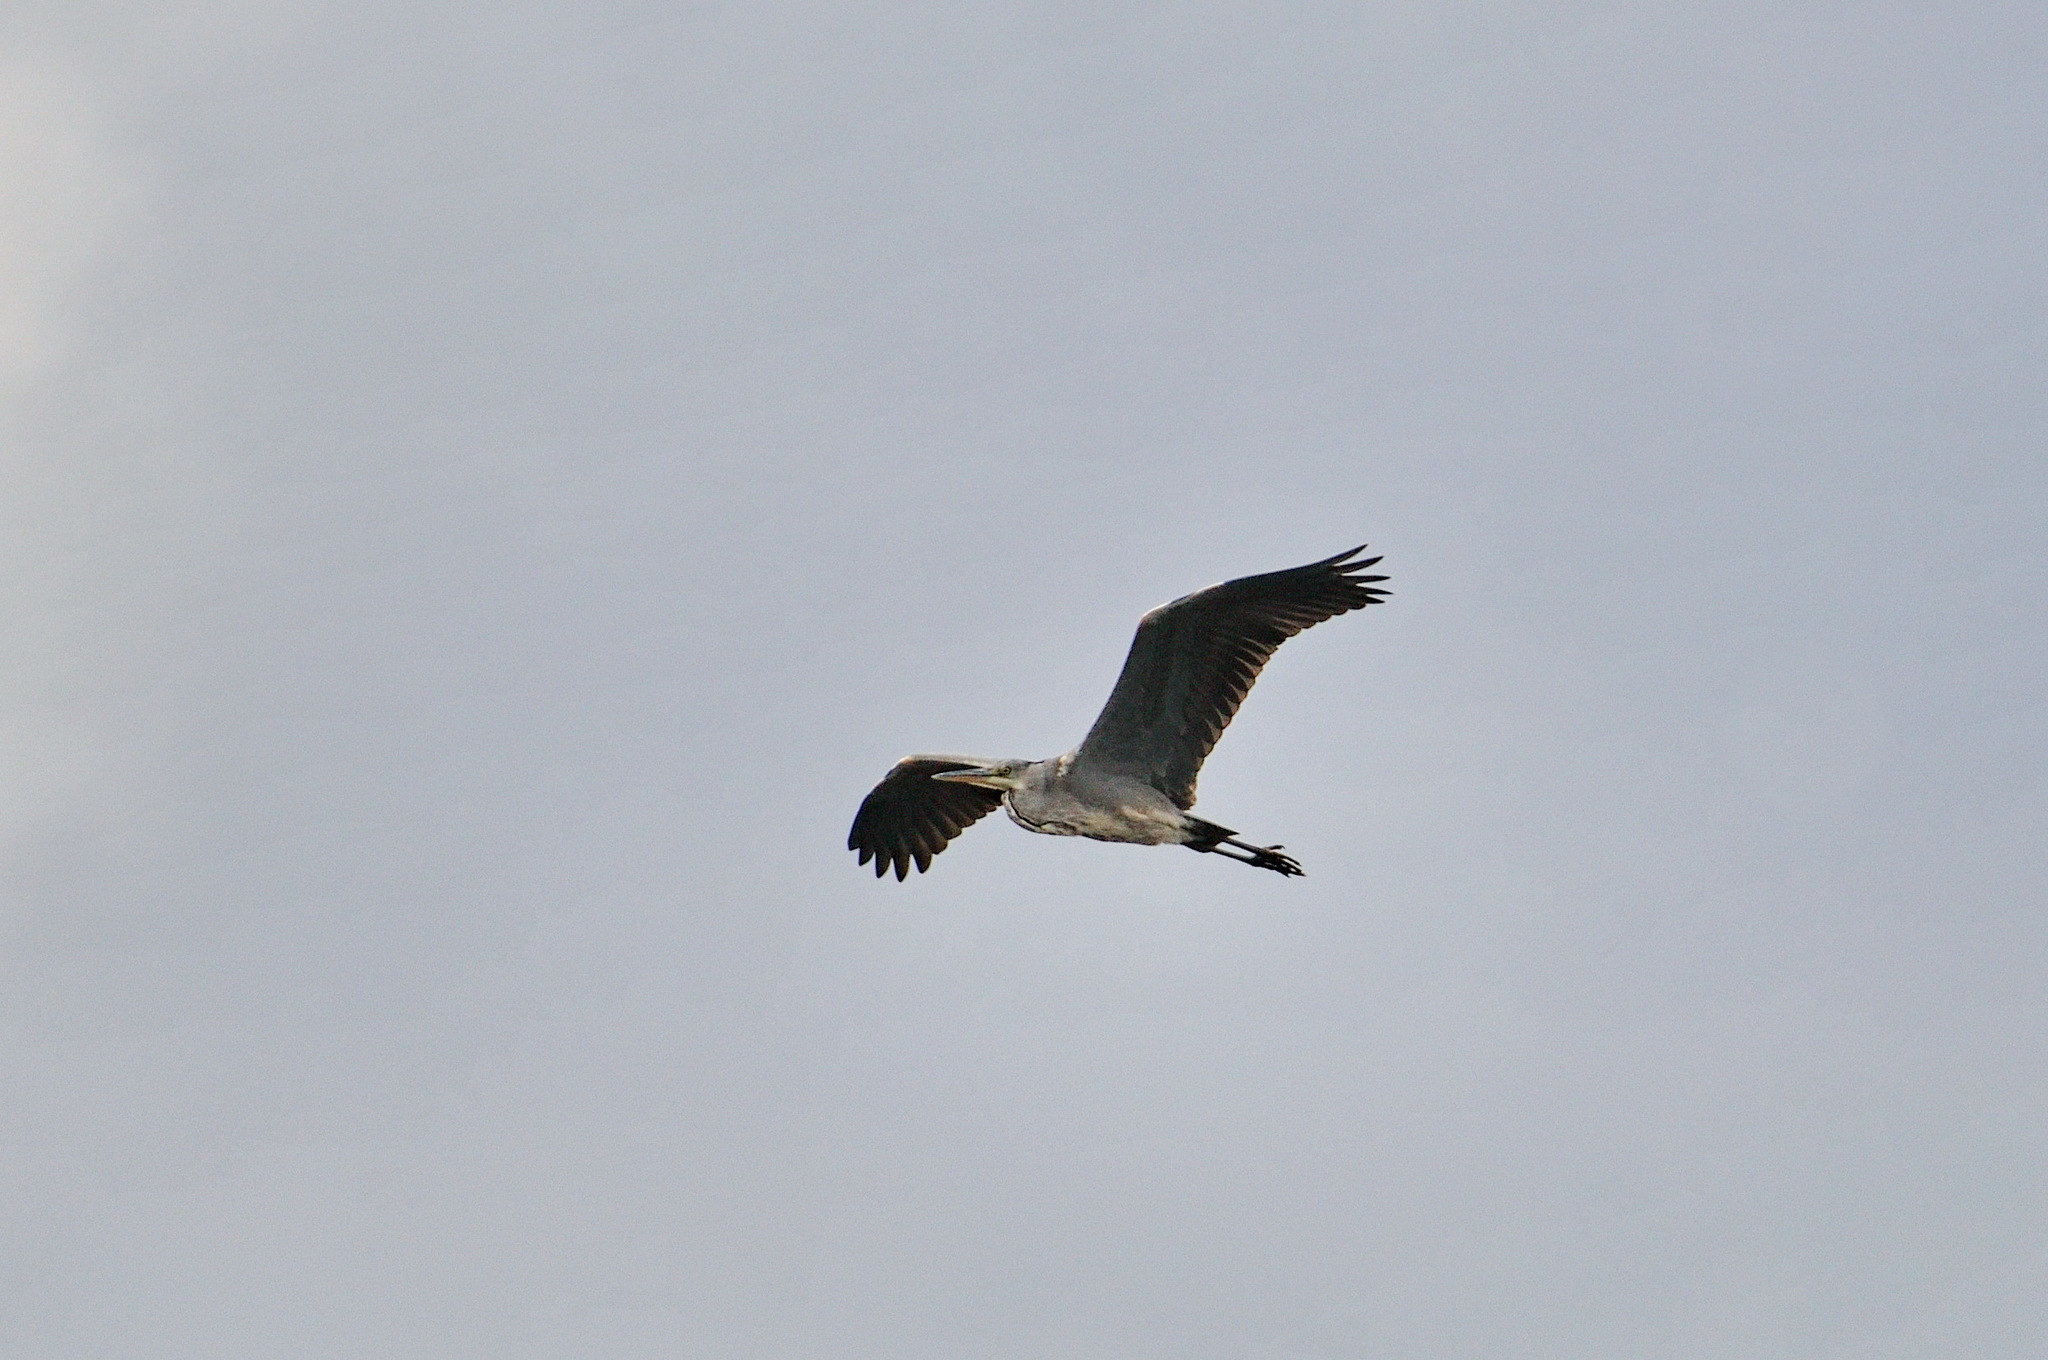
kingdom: Animalia
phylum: Chordata
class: Aves
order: Pelecaniformes
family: Ardeidae
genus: Ardea
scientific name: Ardea cinerea
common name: Grey heron
